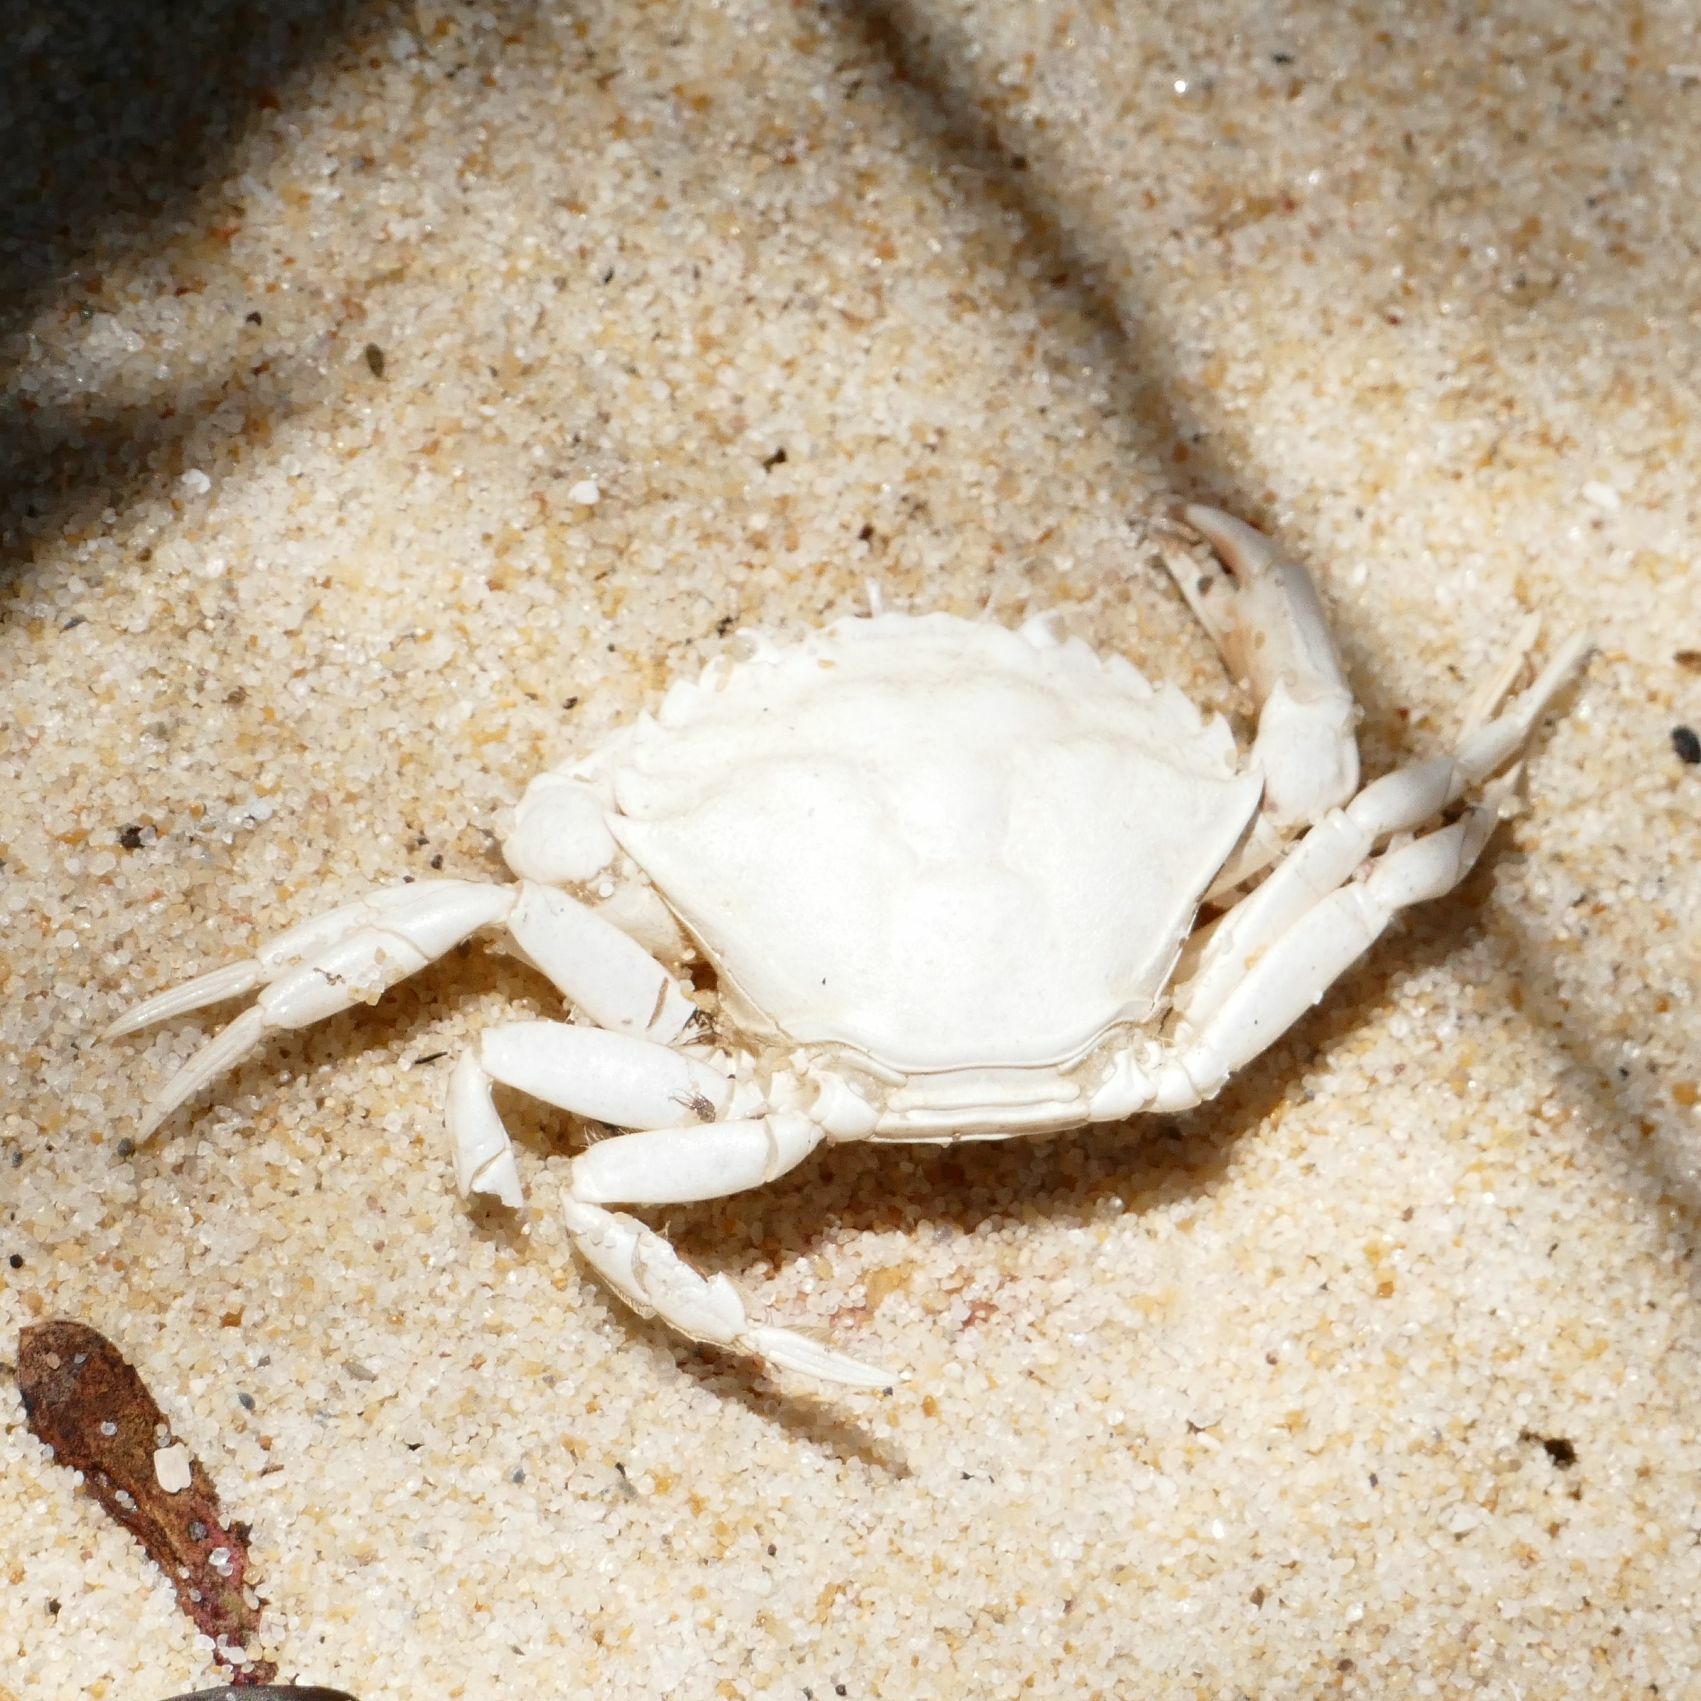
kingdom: Animalia
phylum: Arthropoda
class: Malacostraca
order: Decapoda
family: Carcinidae
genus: Carcinus
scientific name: Carcinus maenas
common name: European green crab
